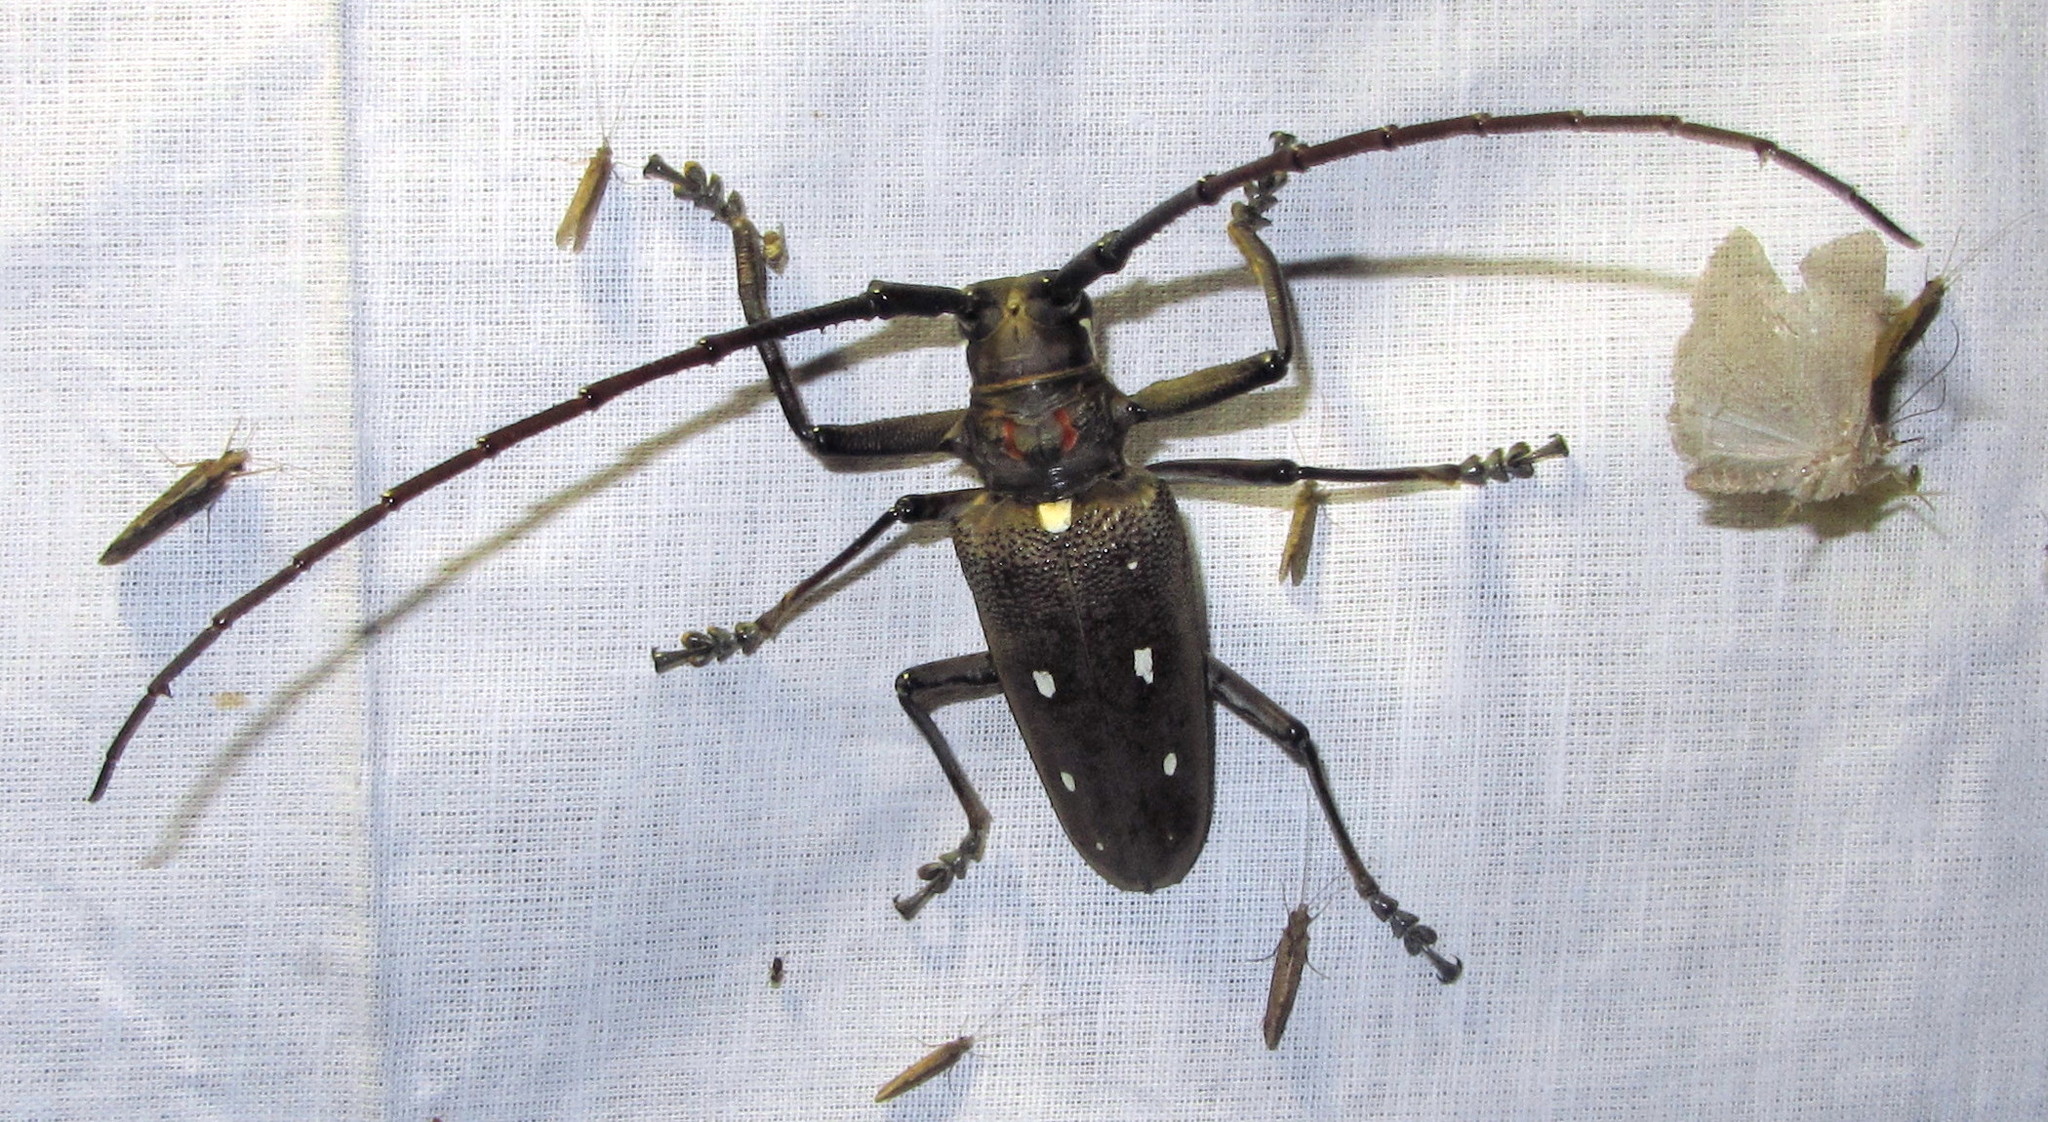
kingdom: Animalia
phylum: Arthropoda
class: Insecta
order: Coleoptera
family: Cerambycidae
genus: Batocera
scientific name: Batocera rubus
